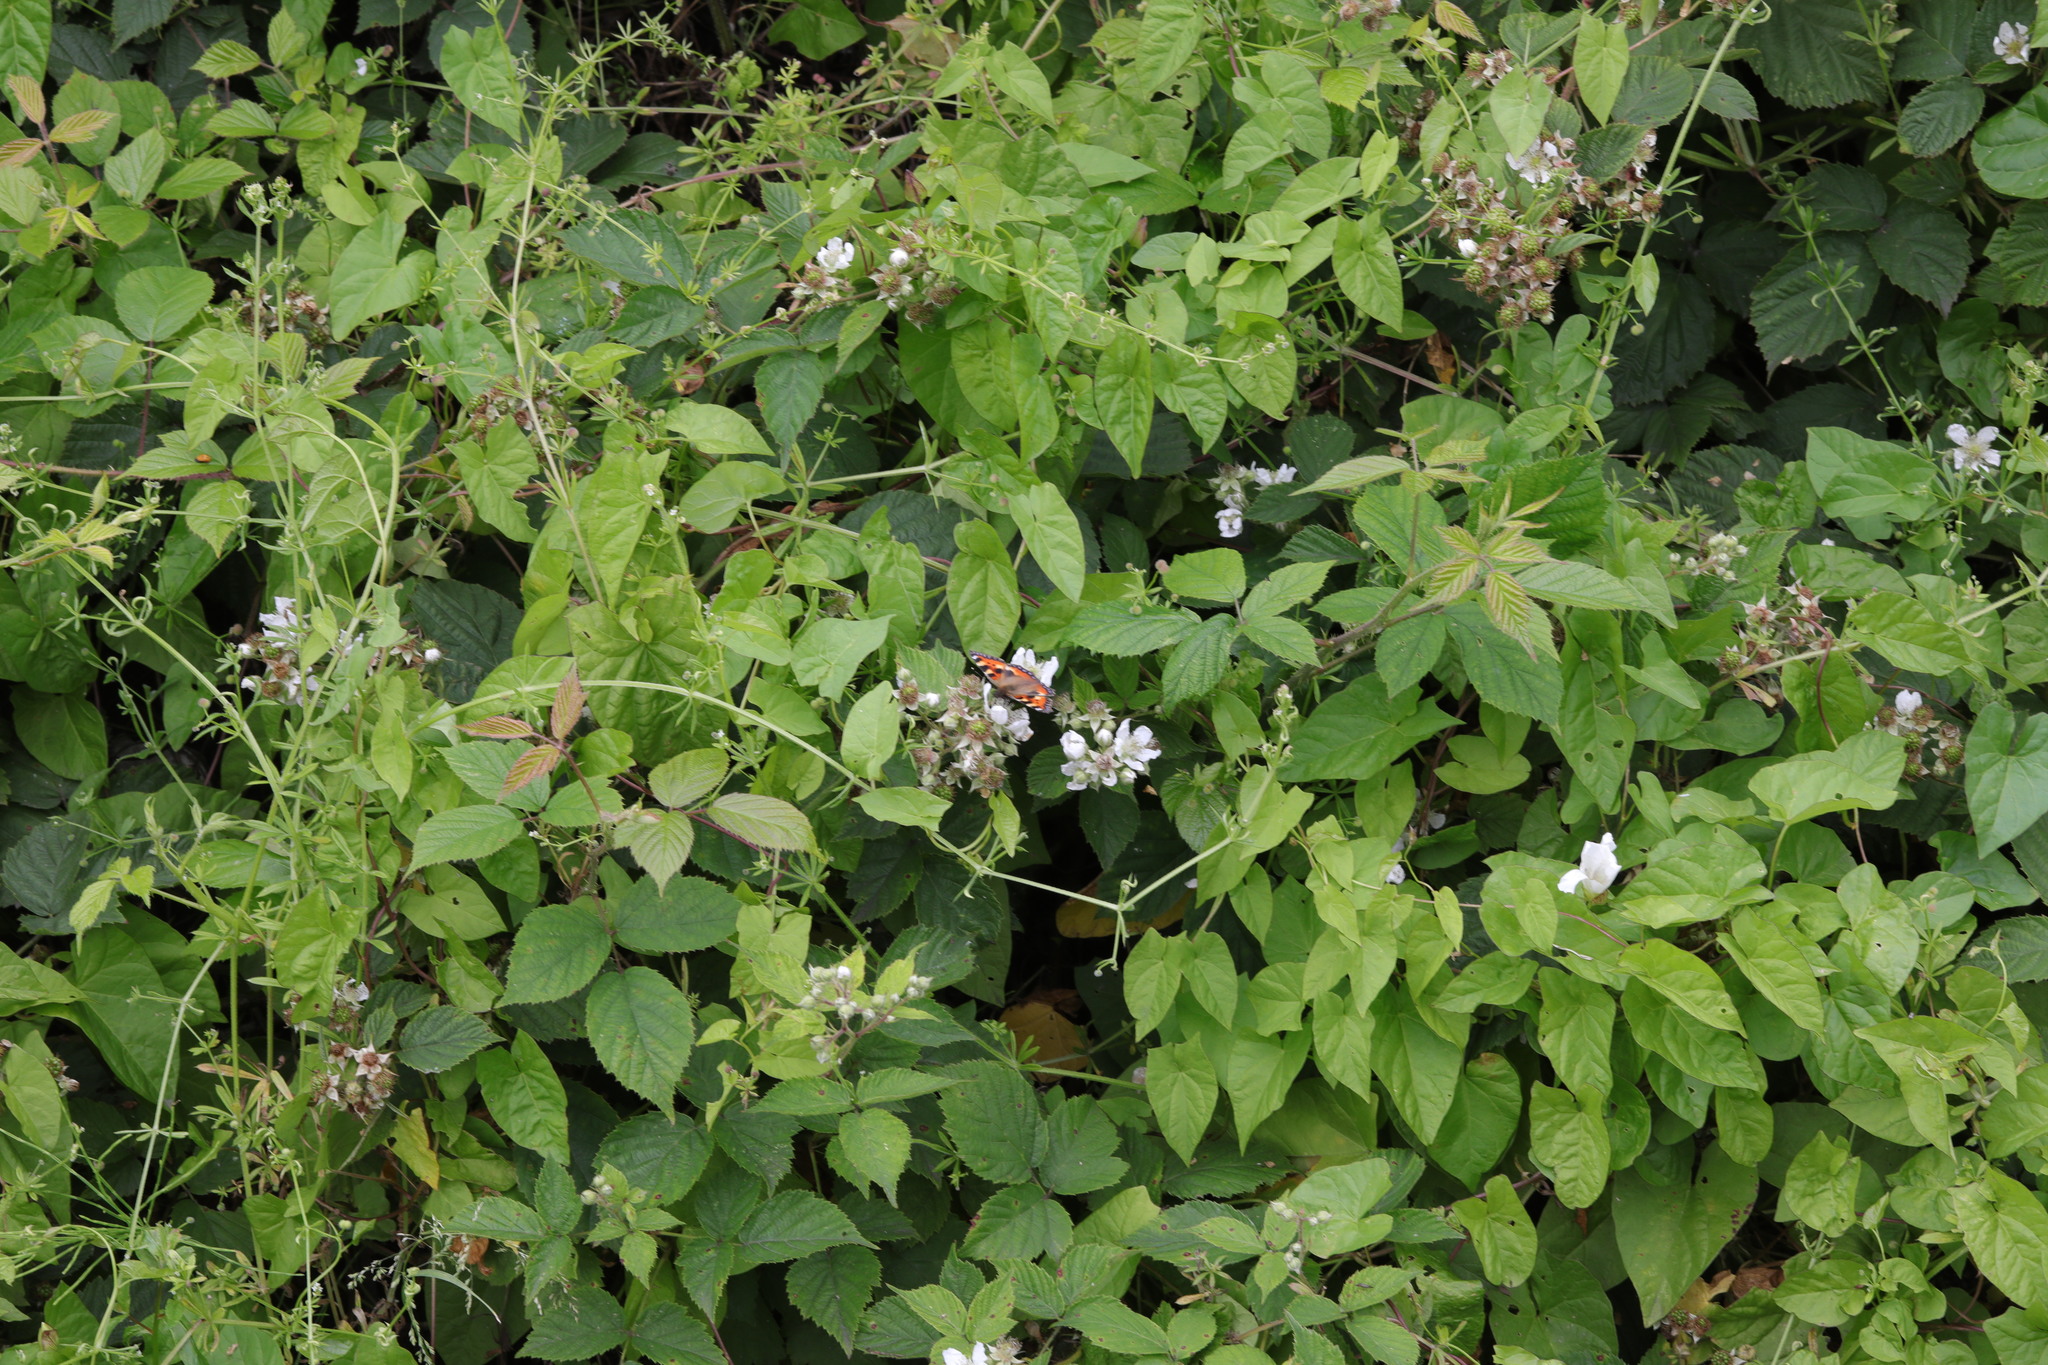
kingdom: Animalia
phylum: Arthropoda
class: Insecta
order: Lepidoptera
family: Nymphalidae
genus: Aglais
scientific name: Aglais urticae
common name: Small tortoiseshell
